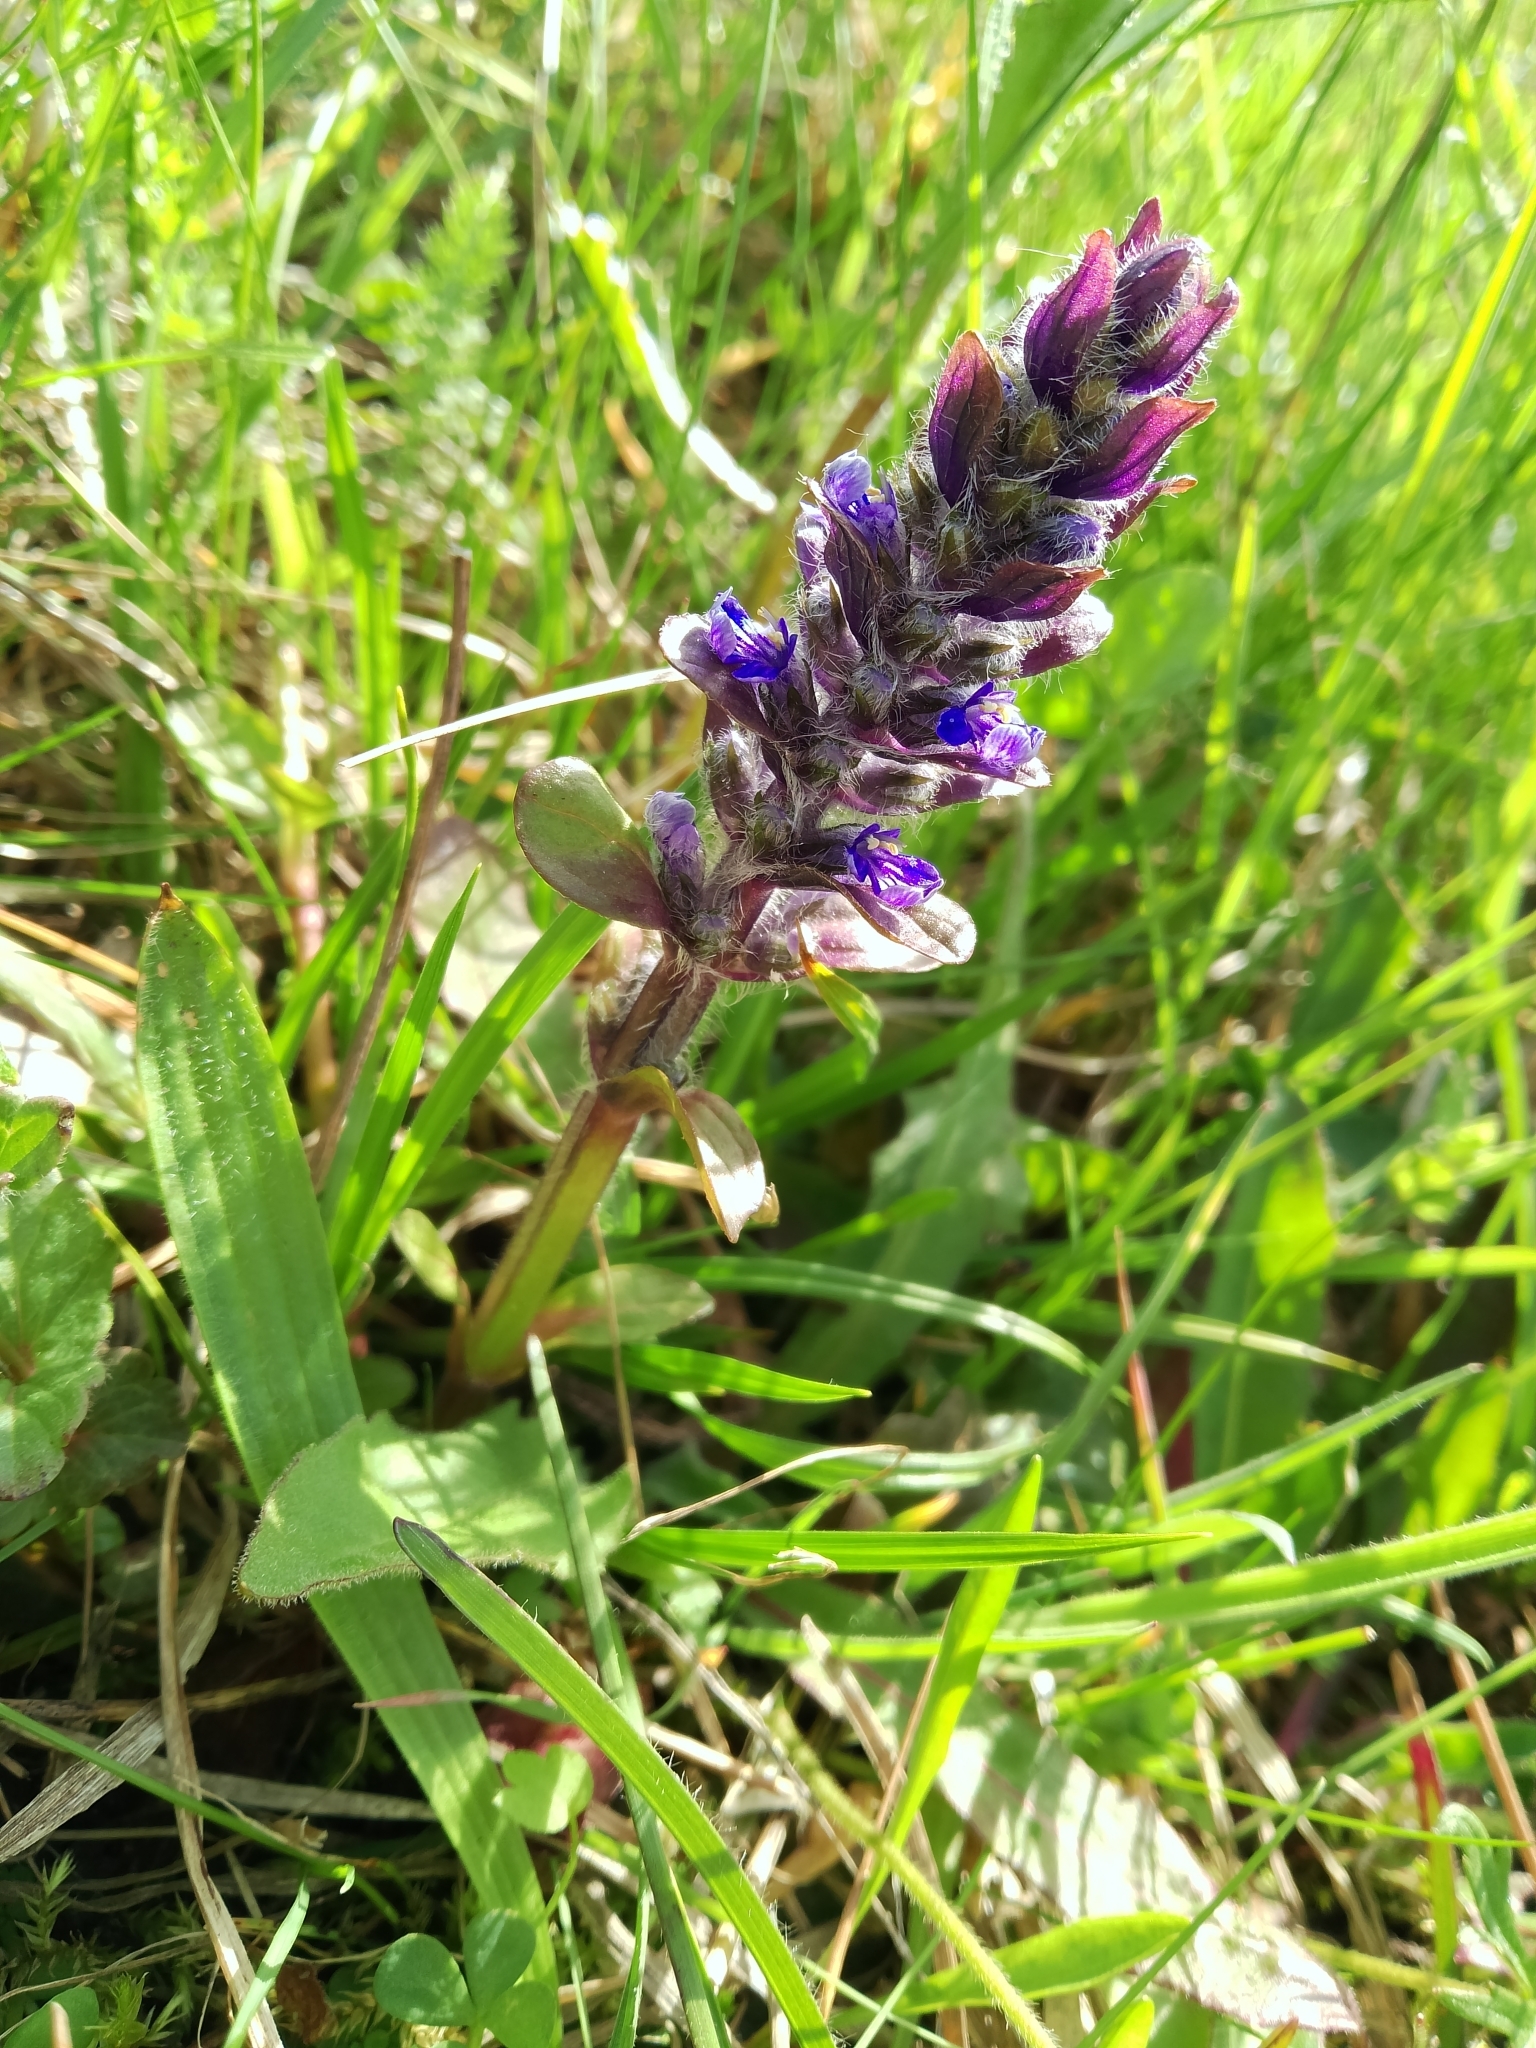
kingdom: Plantae
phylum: Tracheophyta
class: Magnoliopsida
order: Lamiales
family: Lamiaceae
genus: Ajuga
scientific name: Ajuga reptans
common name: Bugle
